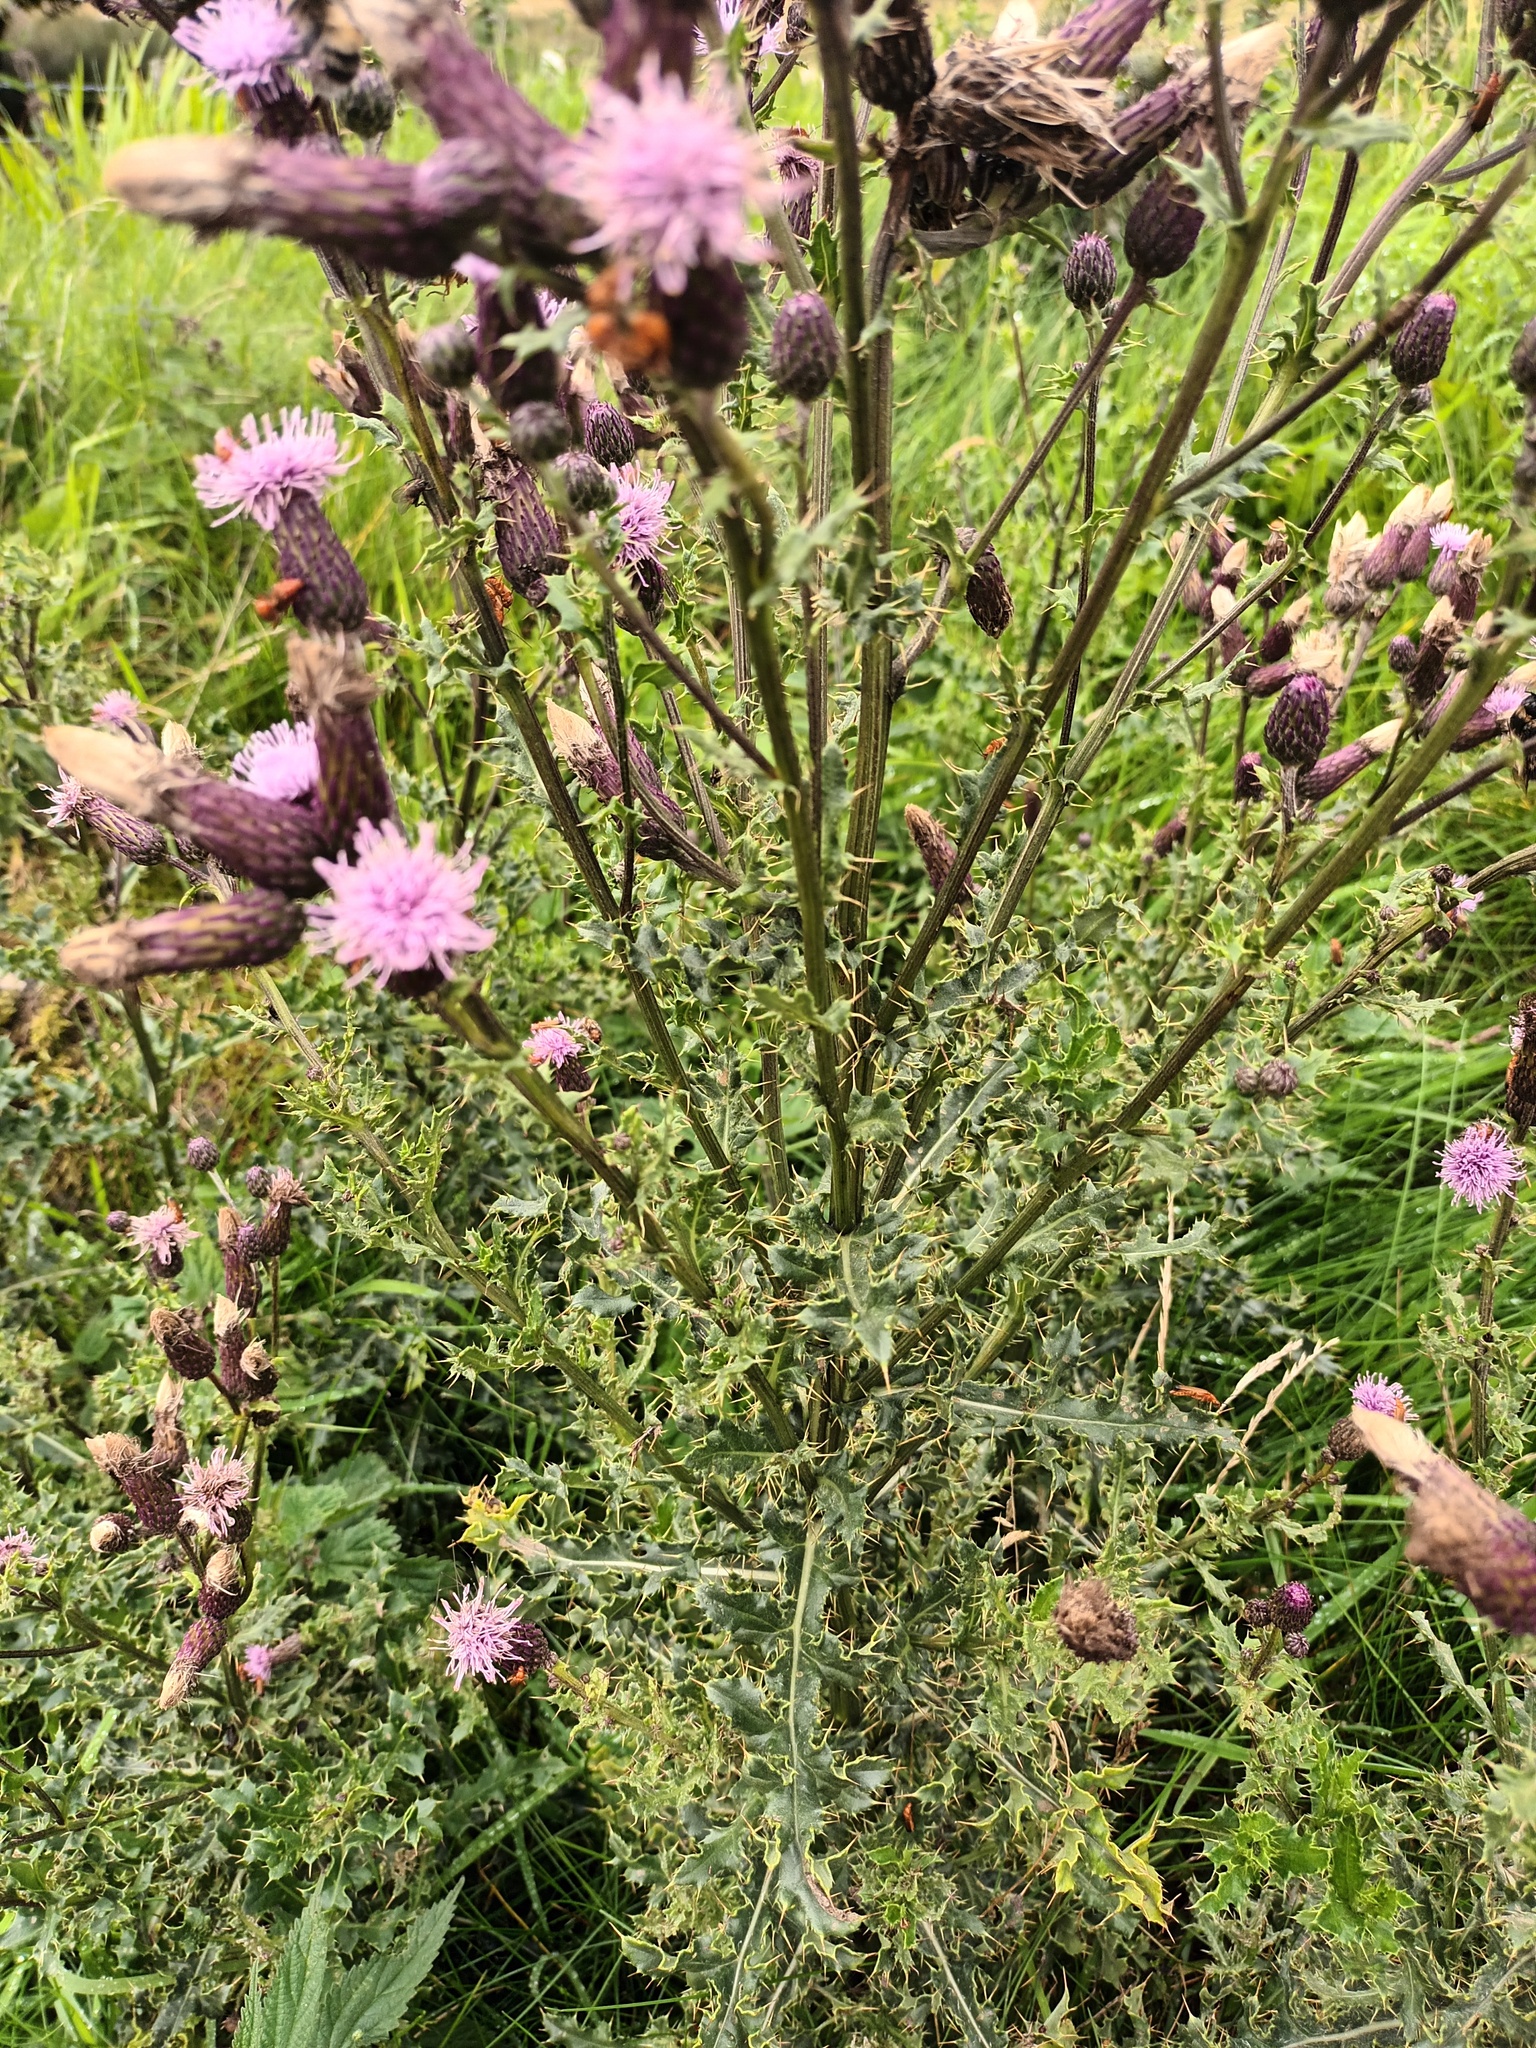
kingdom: Plantae
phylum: Tracheophyta
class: Magnoliopsida
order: Asterales
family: Asteraceae
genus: Cirsium
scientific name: Cirsium arvense
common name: Creeping thistle
